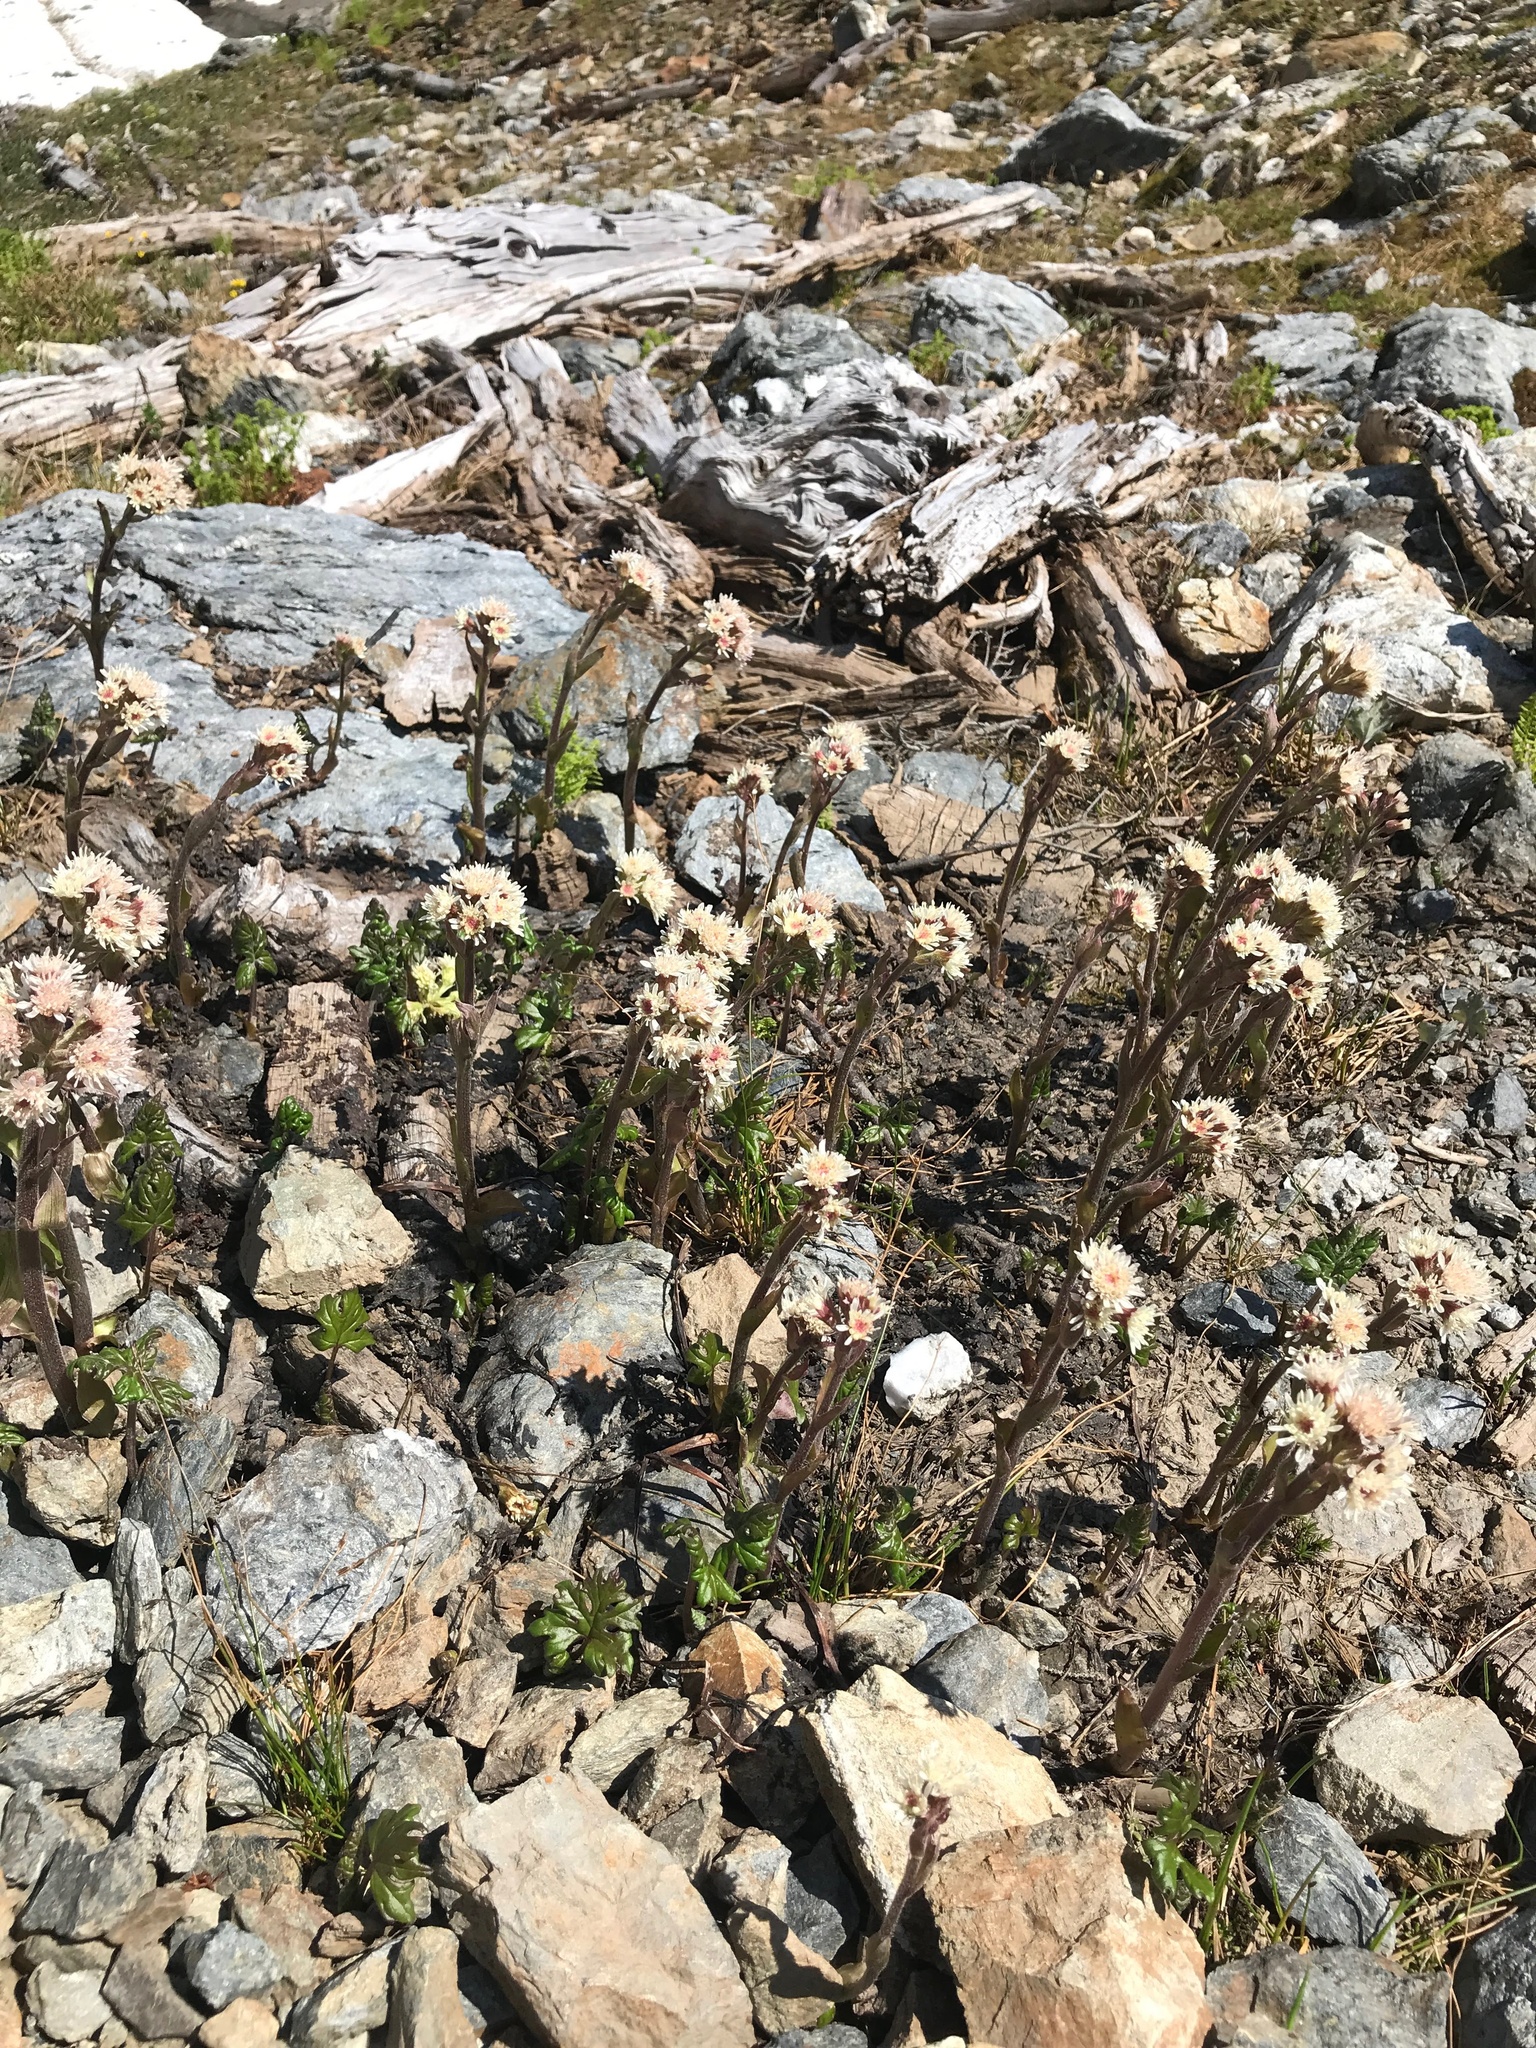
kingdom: Plantae
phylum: Tracheophyta
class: Magnoliopsida
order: Asterales
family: Asteraceae
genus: Petasites
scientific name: Petasites frigidus
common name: Arctic butterbur
